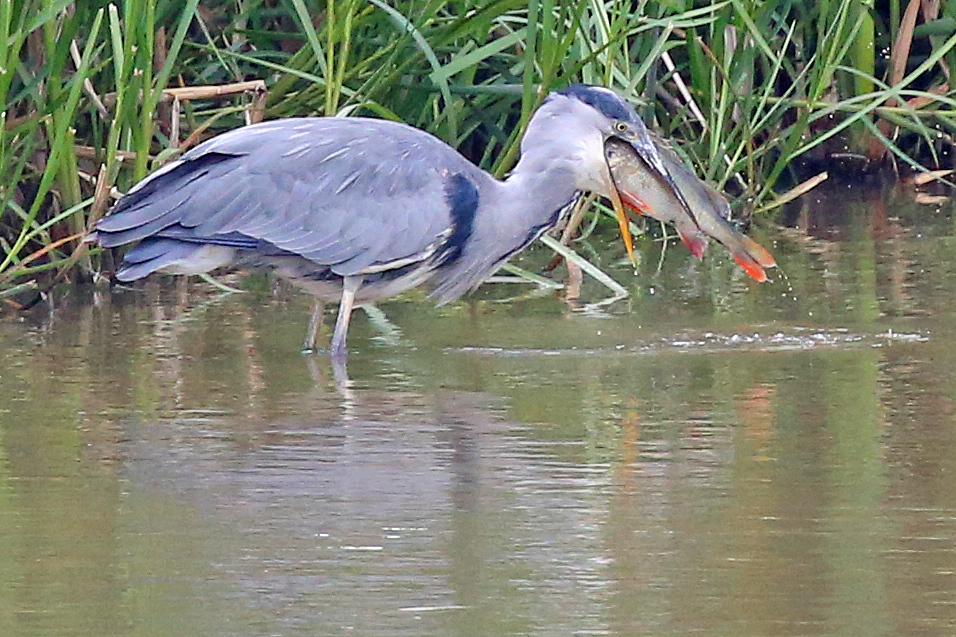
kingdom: Animalia
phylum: Chordata
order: Perciformes
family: Percidae
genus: Perca
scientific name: Perca fluviatilis
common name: Perch
